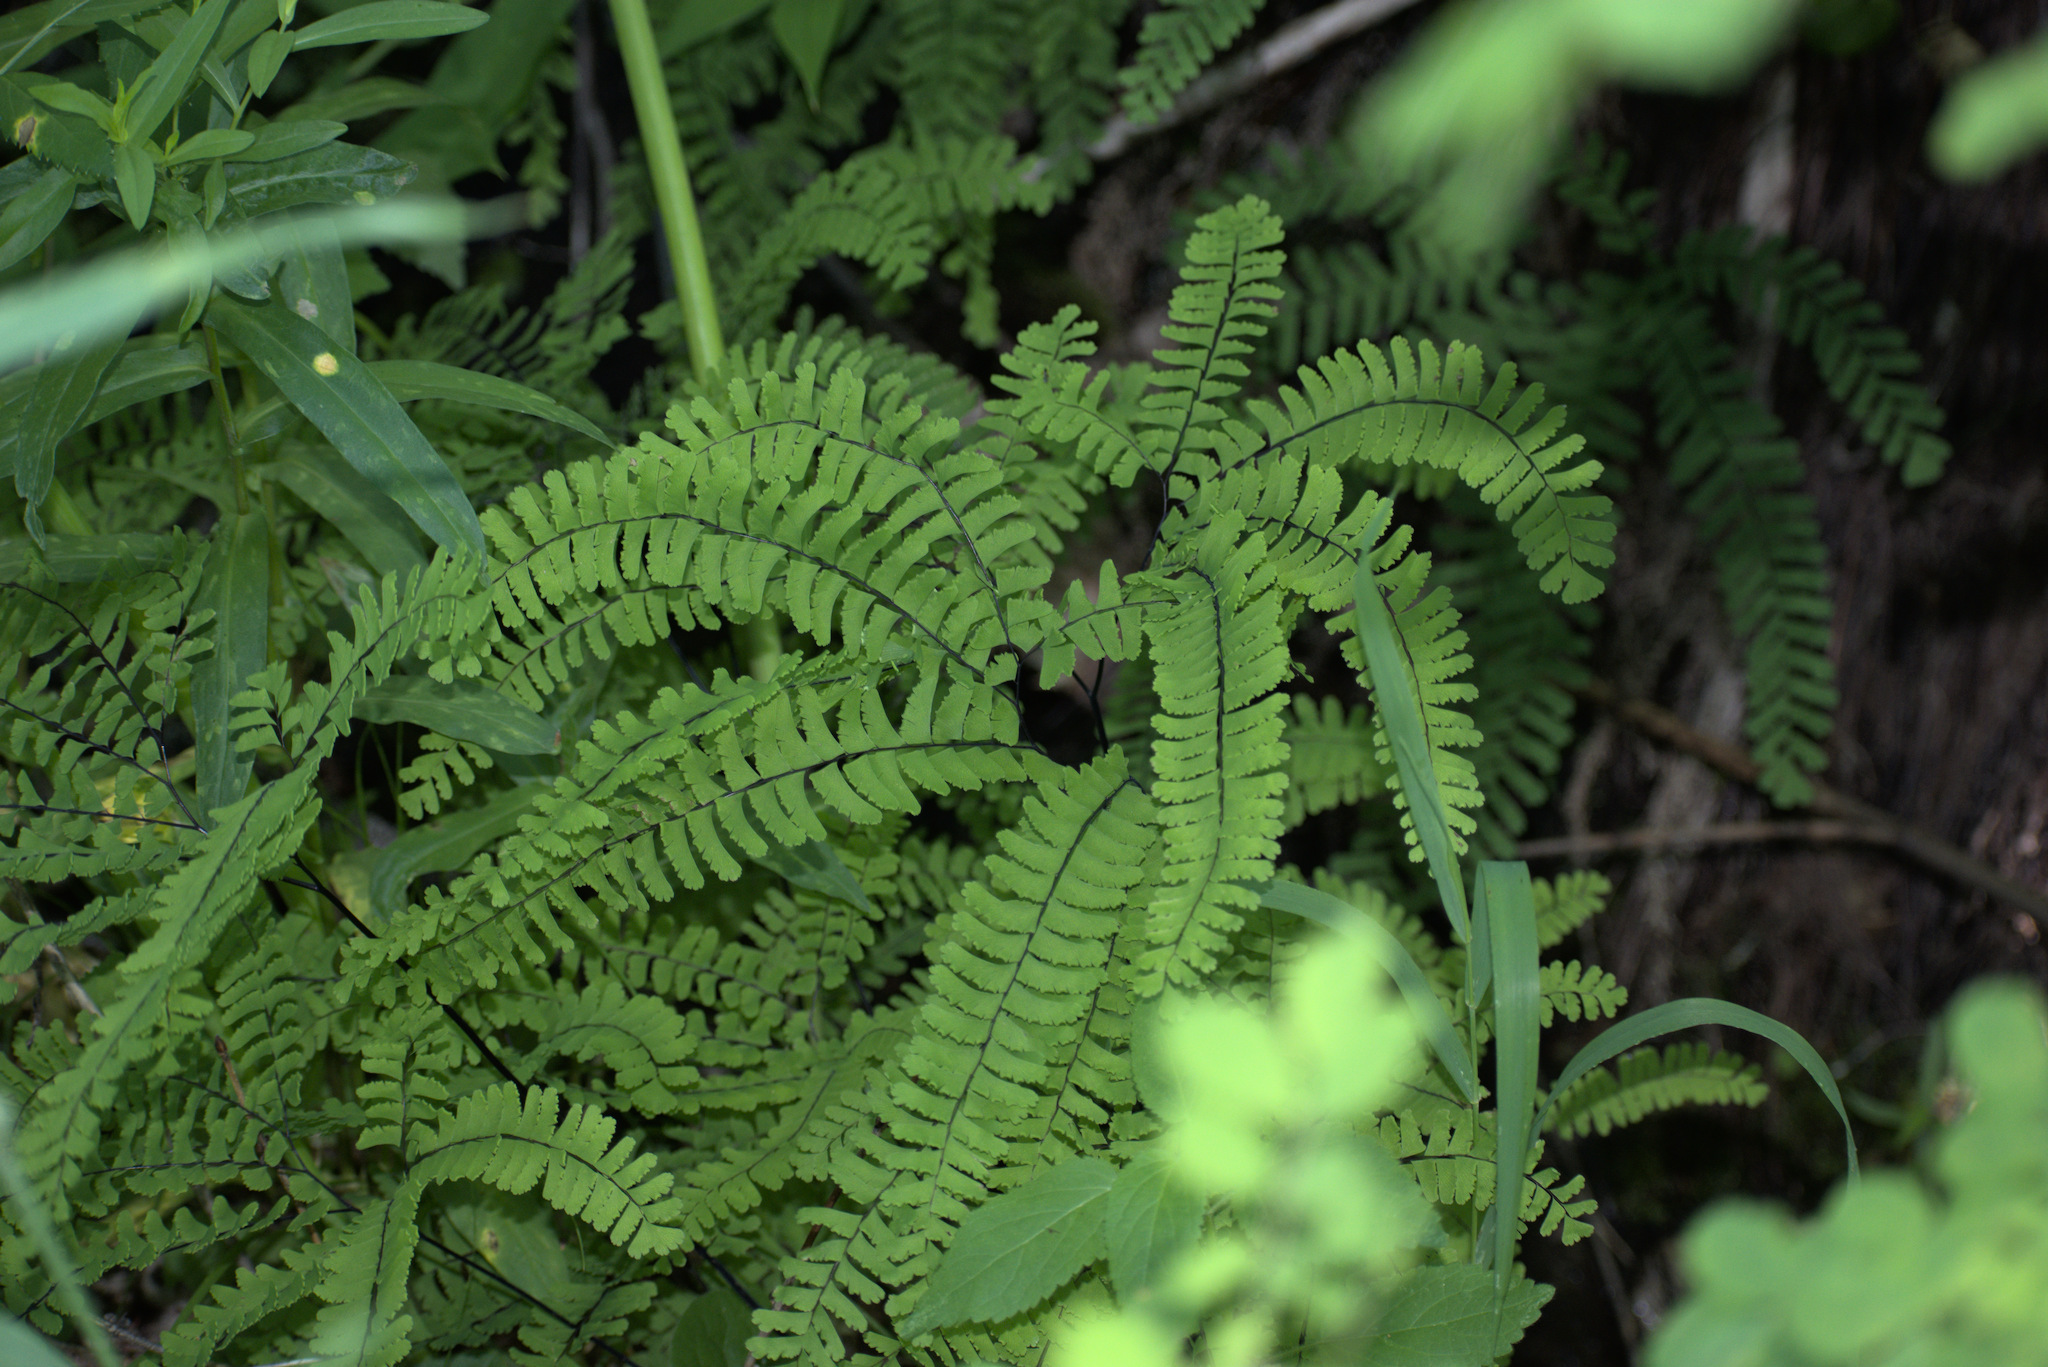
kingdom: Plantae
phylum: Tracheophyta
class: Polypodiopsida
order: Polypodiales
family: Pteridaceae
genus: Adiantum
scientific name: Adiantum aleuticum
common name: Aleutian maidenhair fern
